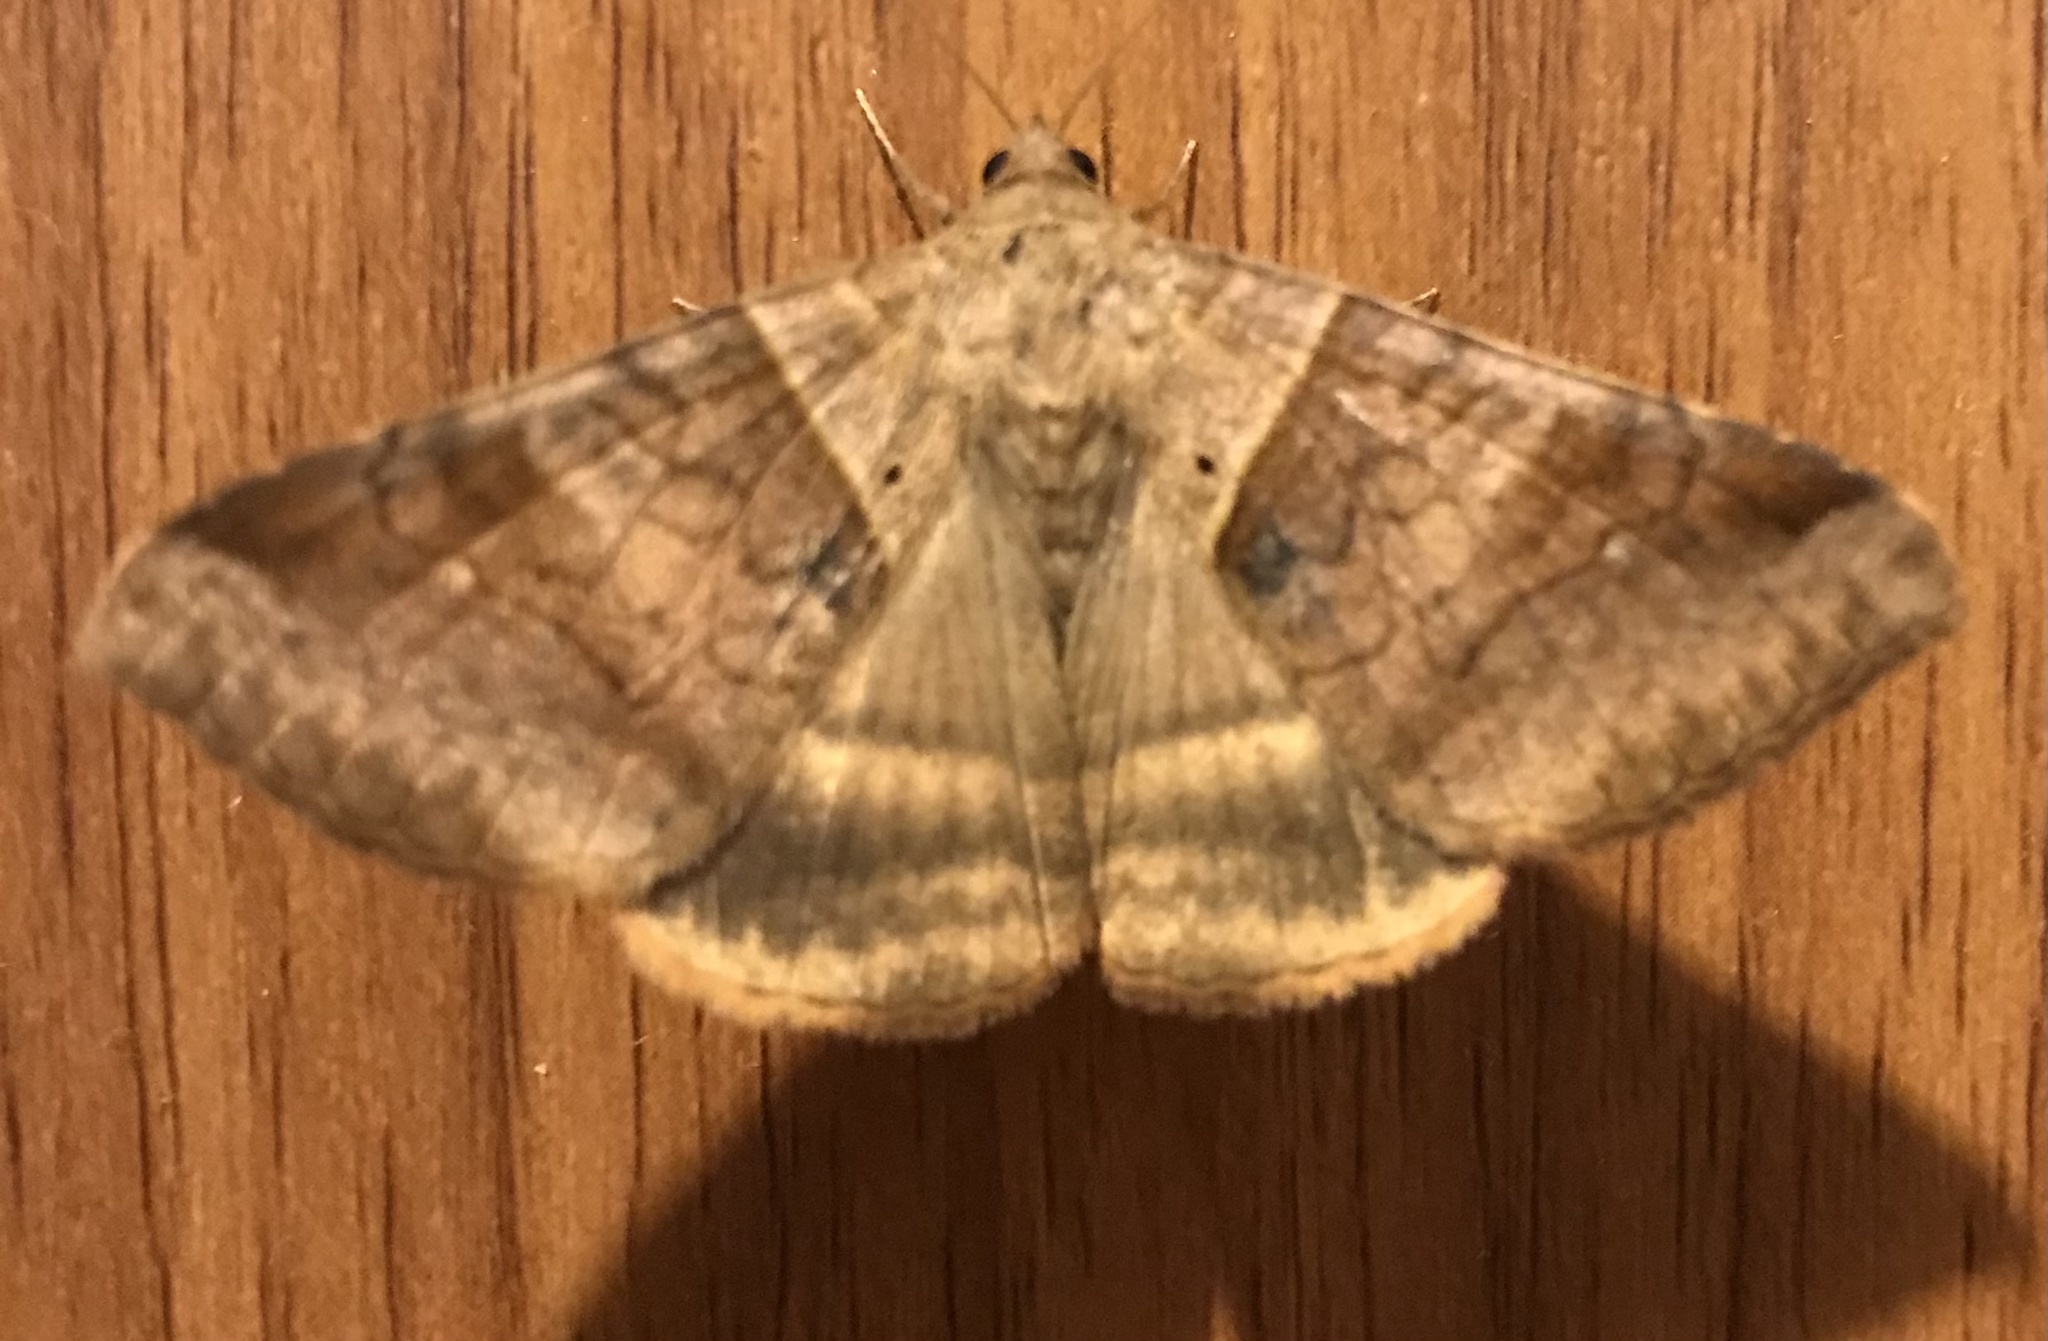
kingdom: Animalia
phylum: Arthropoda
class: Insecta
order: Lepidoptera
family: Erebidae
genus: Mocis
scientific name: Mocis undata
